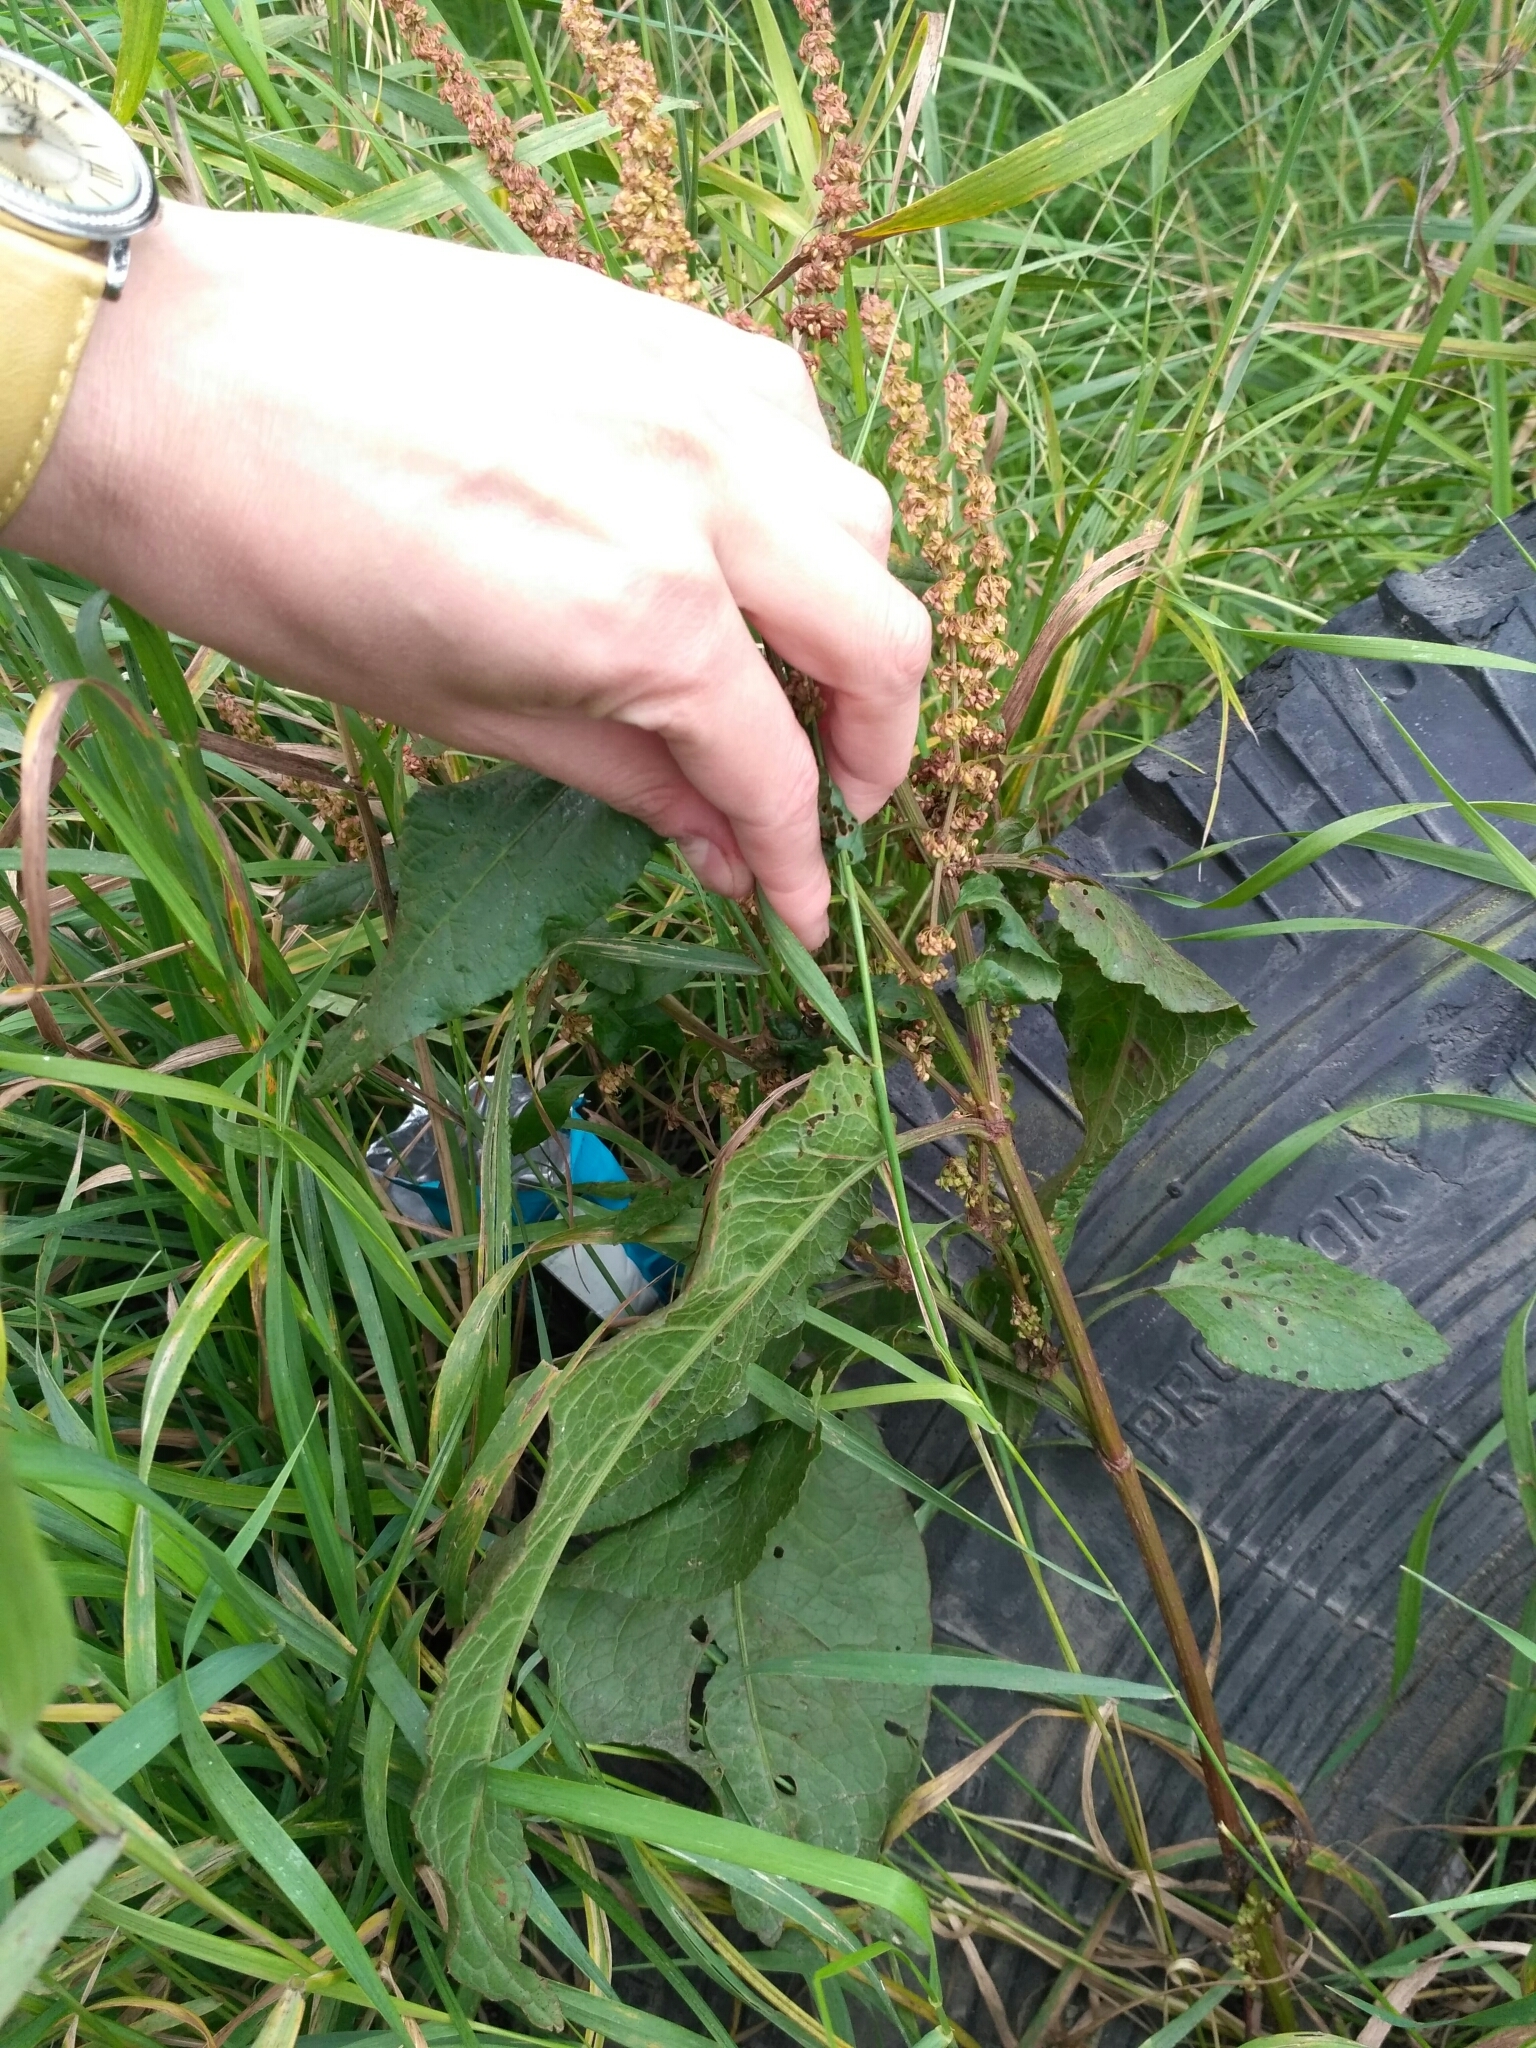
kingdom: Plantae
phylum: Tracheophyta
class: Magnoliopsida
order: Caryophyllales
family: Polygonaceae
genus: Rumex
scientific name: Rumex obtusifolius
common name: Bitter dock
